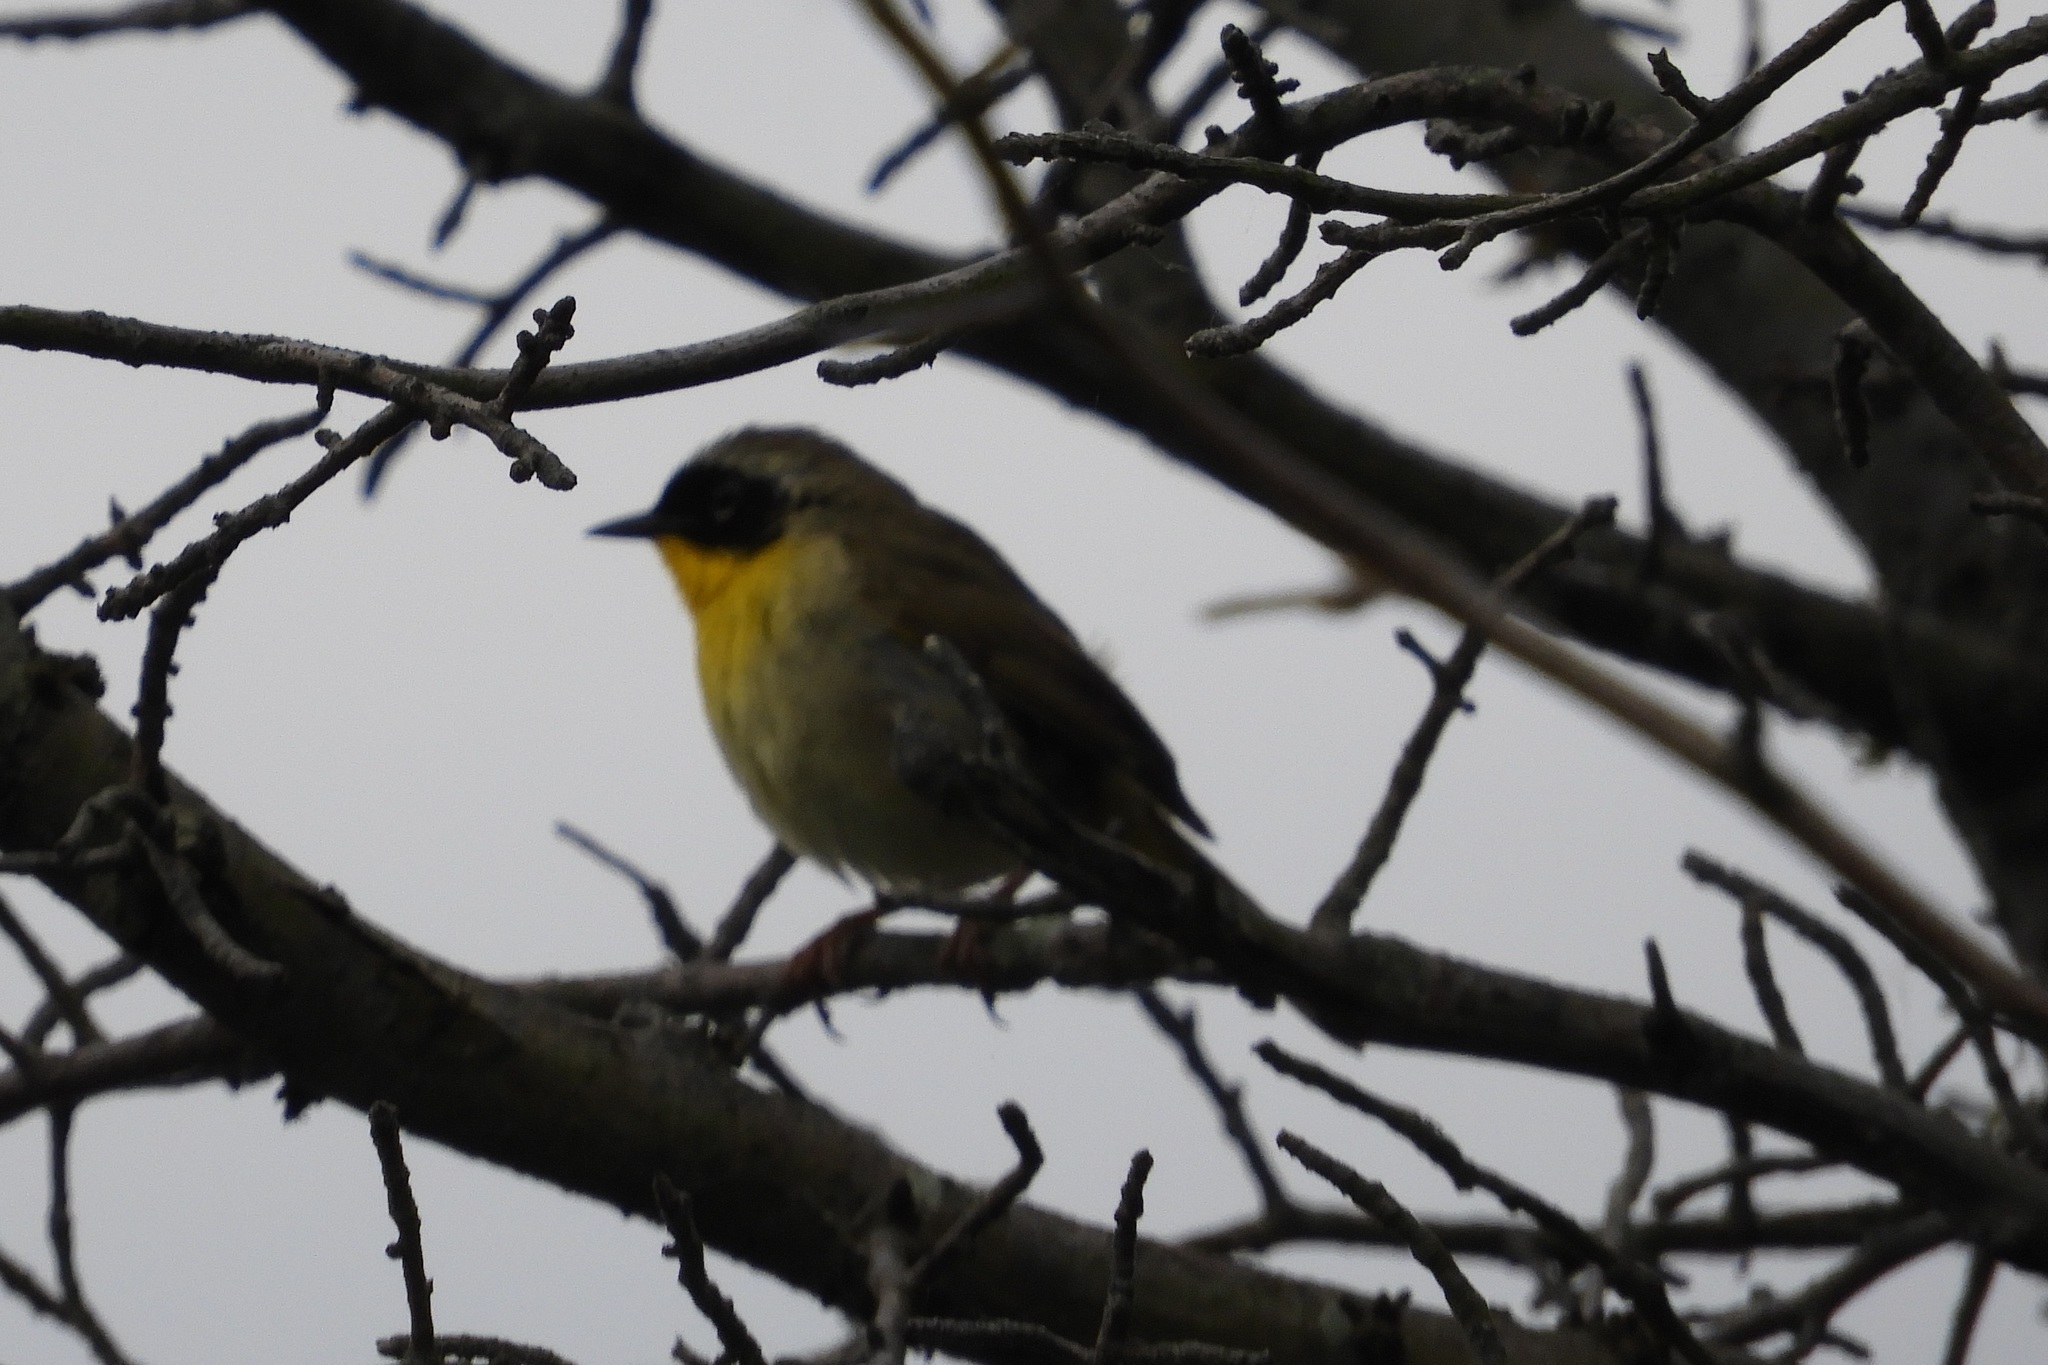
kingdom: Animalia
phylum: Chordata
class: Aves
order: Passeriformes
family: Parulidae
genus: Geothlypis
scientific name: Geothlypis trichas
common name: Common yellowthroat
